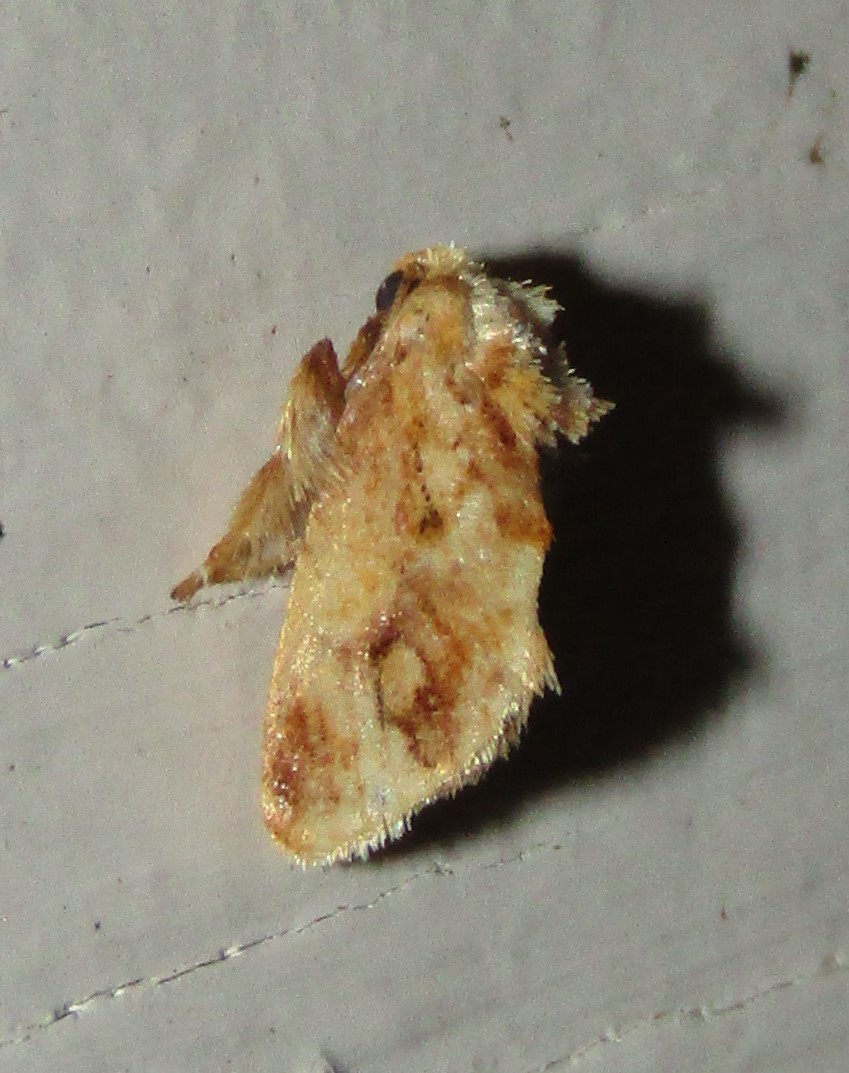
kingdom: Animalia
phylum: Arthropoda
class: Insecta
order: Lepidoptera
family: Limacodidae
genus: Isochaetes
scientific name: Isochaetes beutenmuelleri
